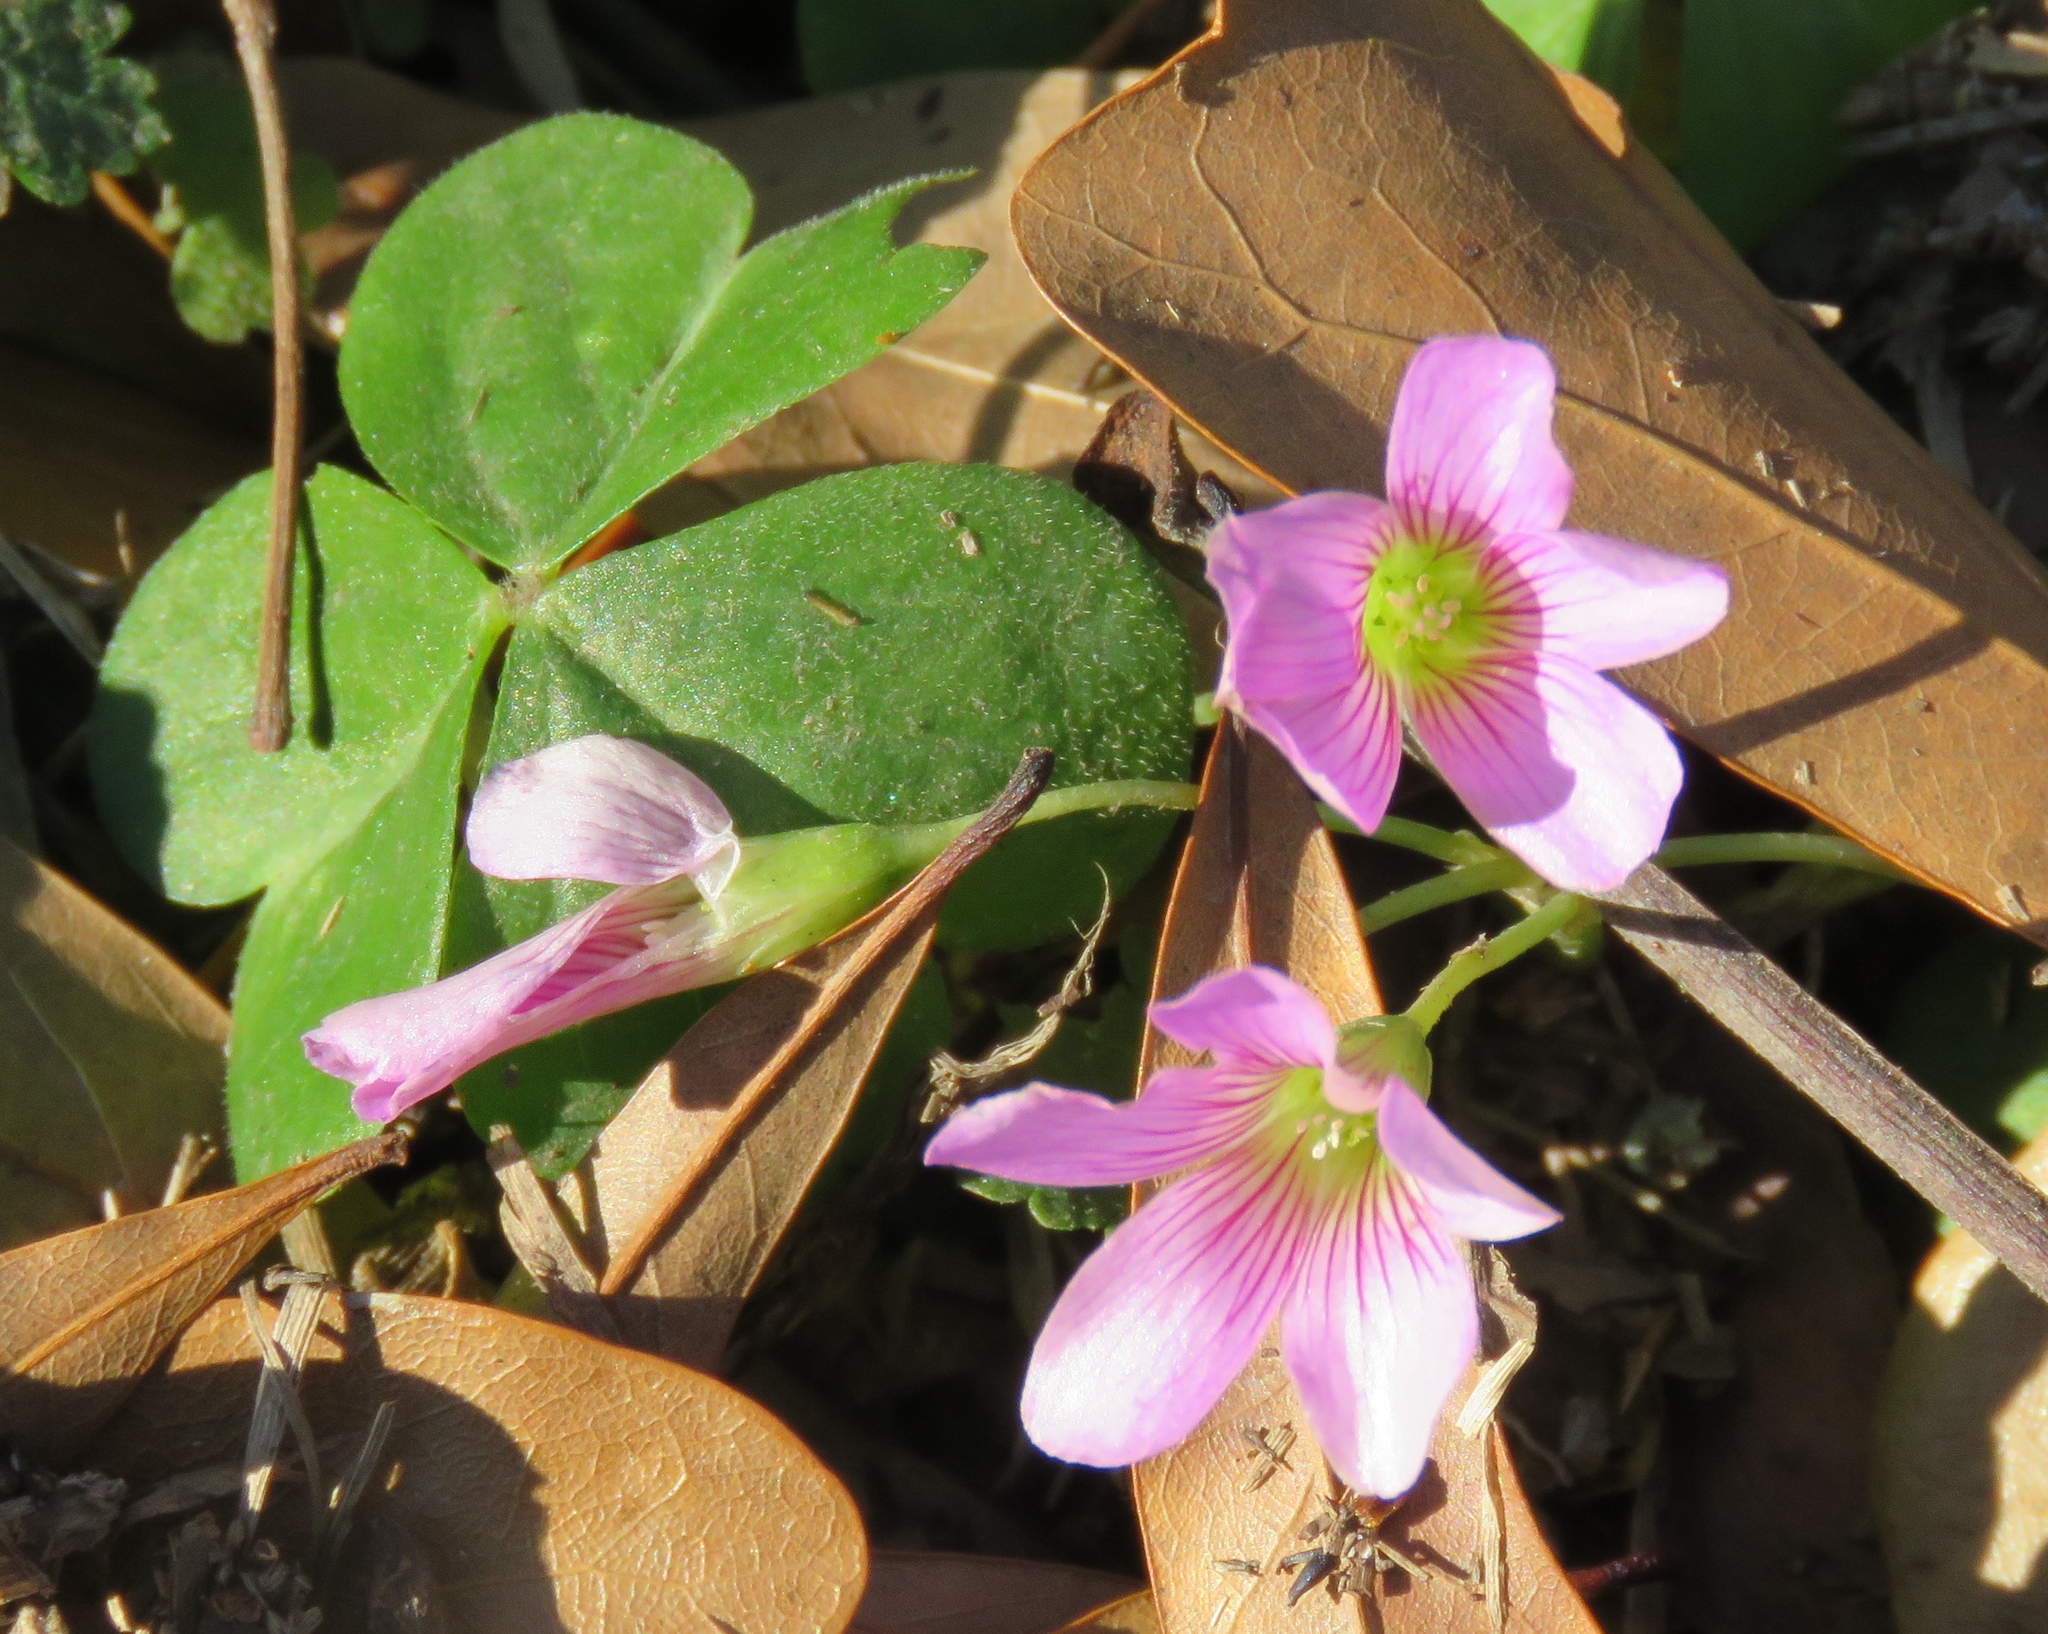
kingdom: Plantae
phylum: Tracheophyta
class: Magnoliopsida
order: Oxalidales
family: Oxalidaceae
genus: Oxalis
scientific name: Oxalis debilis
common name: Large-flowered pink-sorrel
